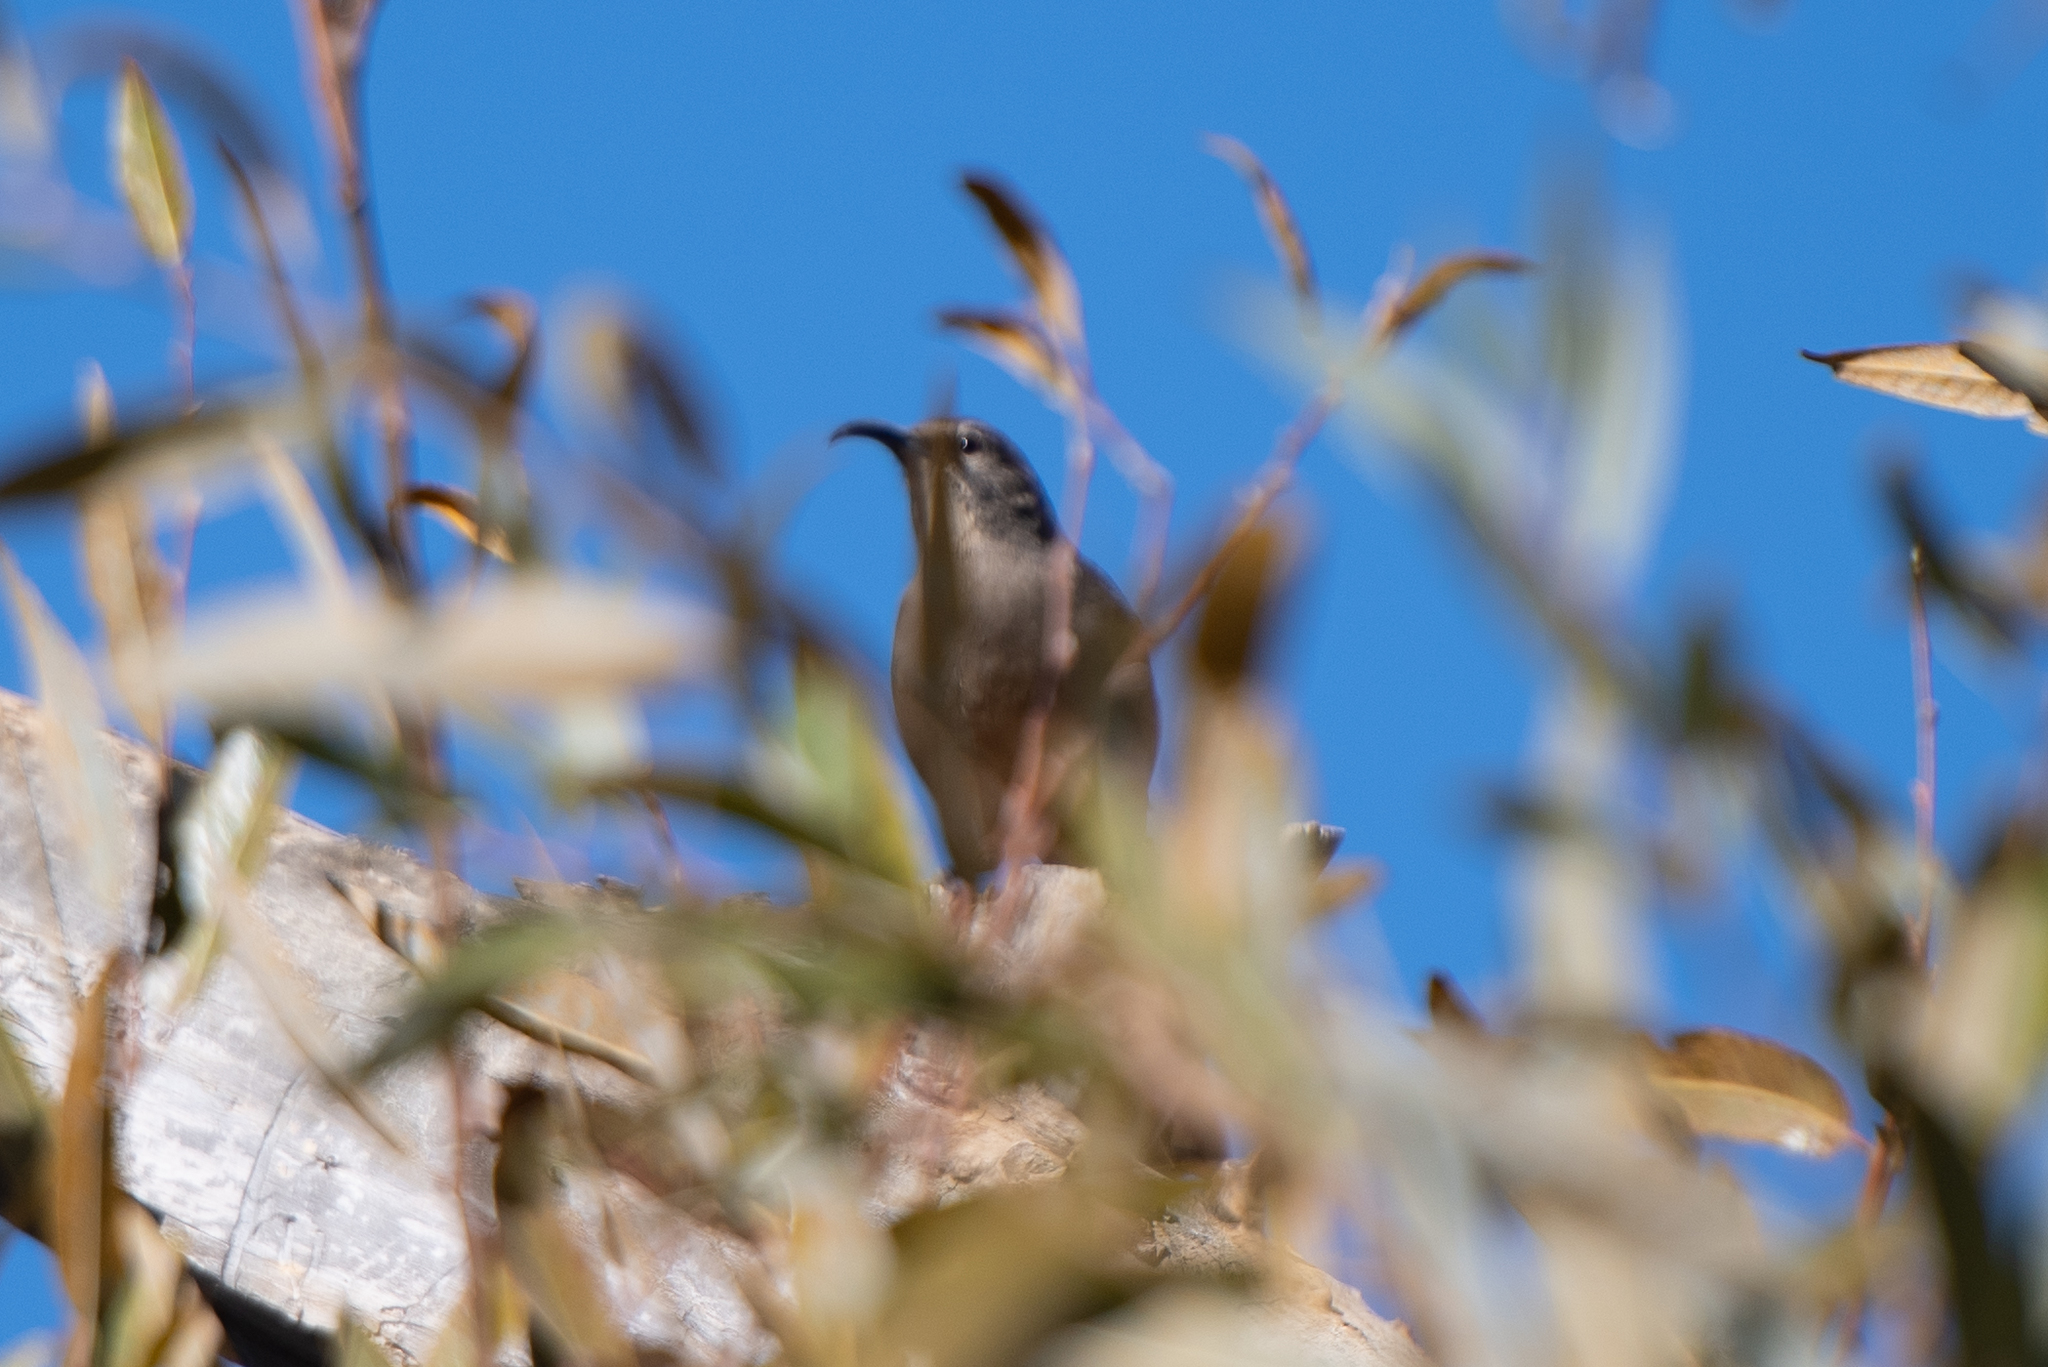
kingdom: Animalia
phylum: Chordata
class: Aves
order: Passeriformes
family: Mimidae
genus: Toxostoma
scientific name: Toxostoma redivivum
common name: California thrasher
